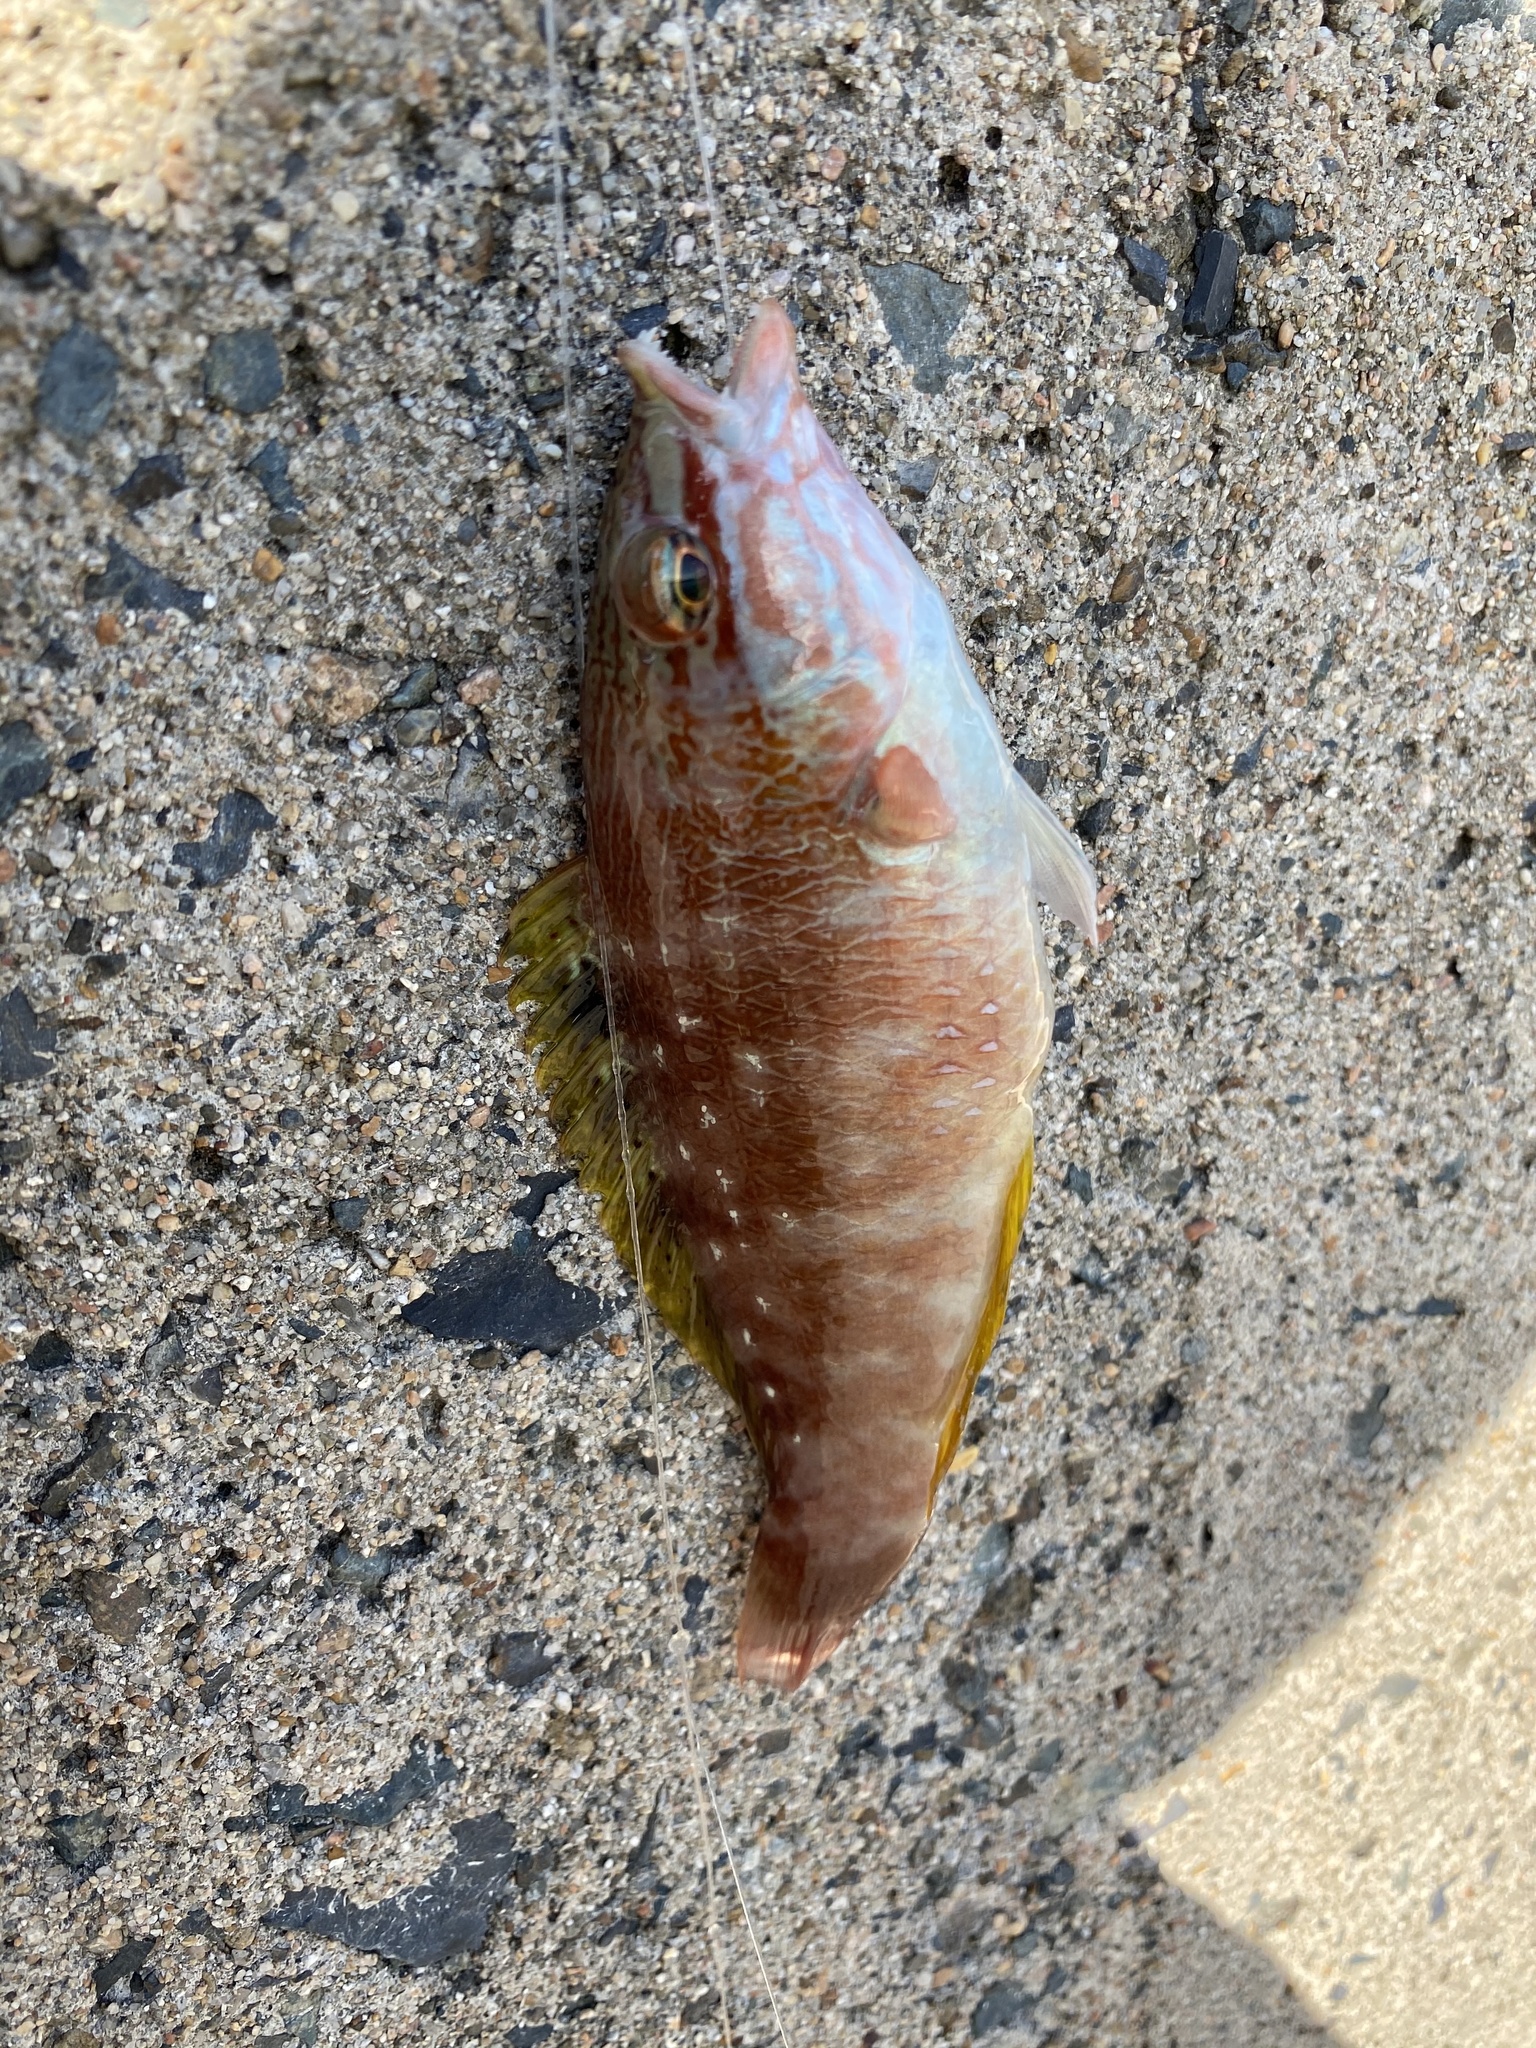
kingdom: Animalia
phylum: Chordata
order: Perciformes
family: Labridae
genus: Pseudolabrus
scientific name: Pseudolabrus sieboldi
